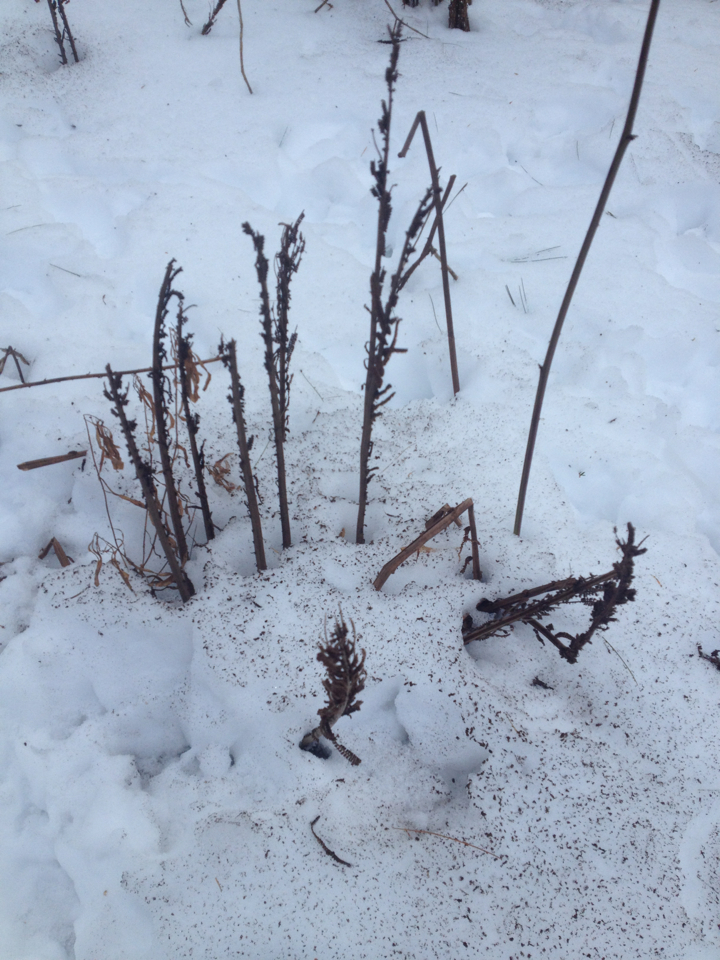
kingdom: Plantae
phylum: Tracheophyta
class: Polypodiopsida
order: Polypodiales
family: Onocleaceae
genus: Matteuccia
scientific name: Matteuccia struthiopteris
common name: Ostrich fern
